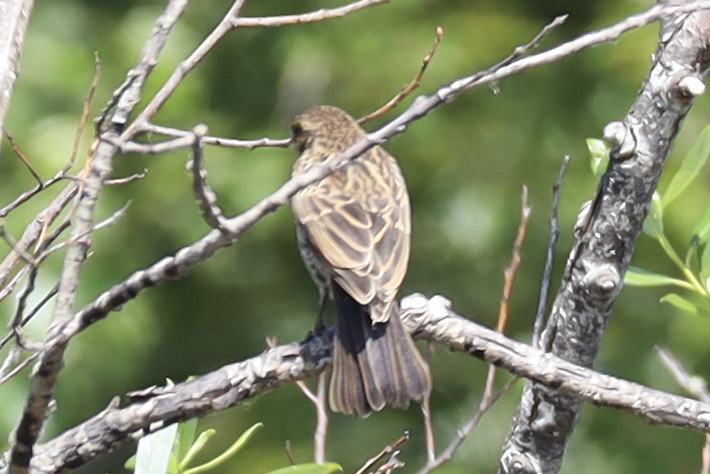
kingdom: Animalia
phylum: Chordata
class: Aves
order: Passeriformes
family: Icteridae
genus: Agelaius
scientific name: Agelaius phoeniceus
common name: Red-winged blackbird
